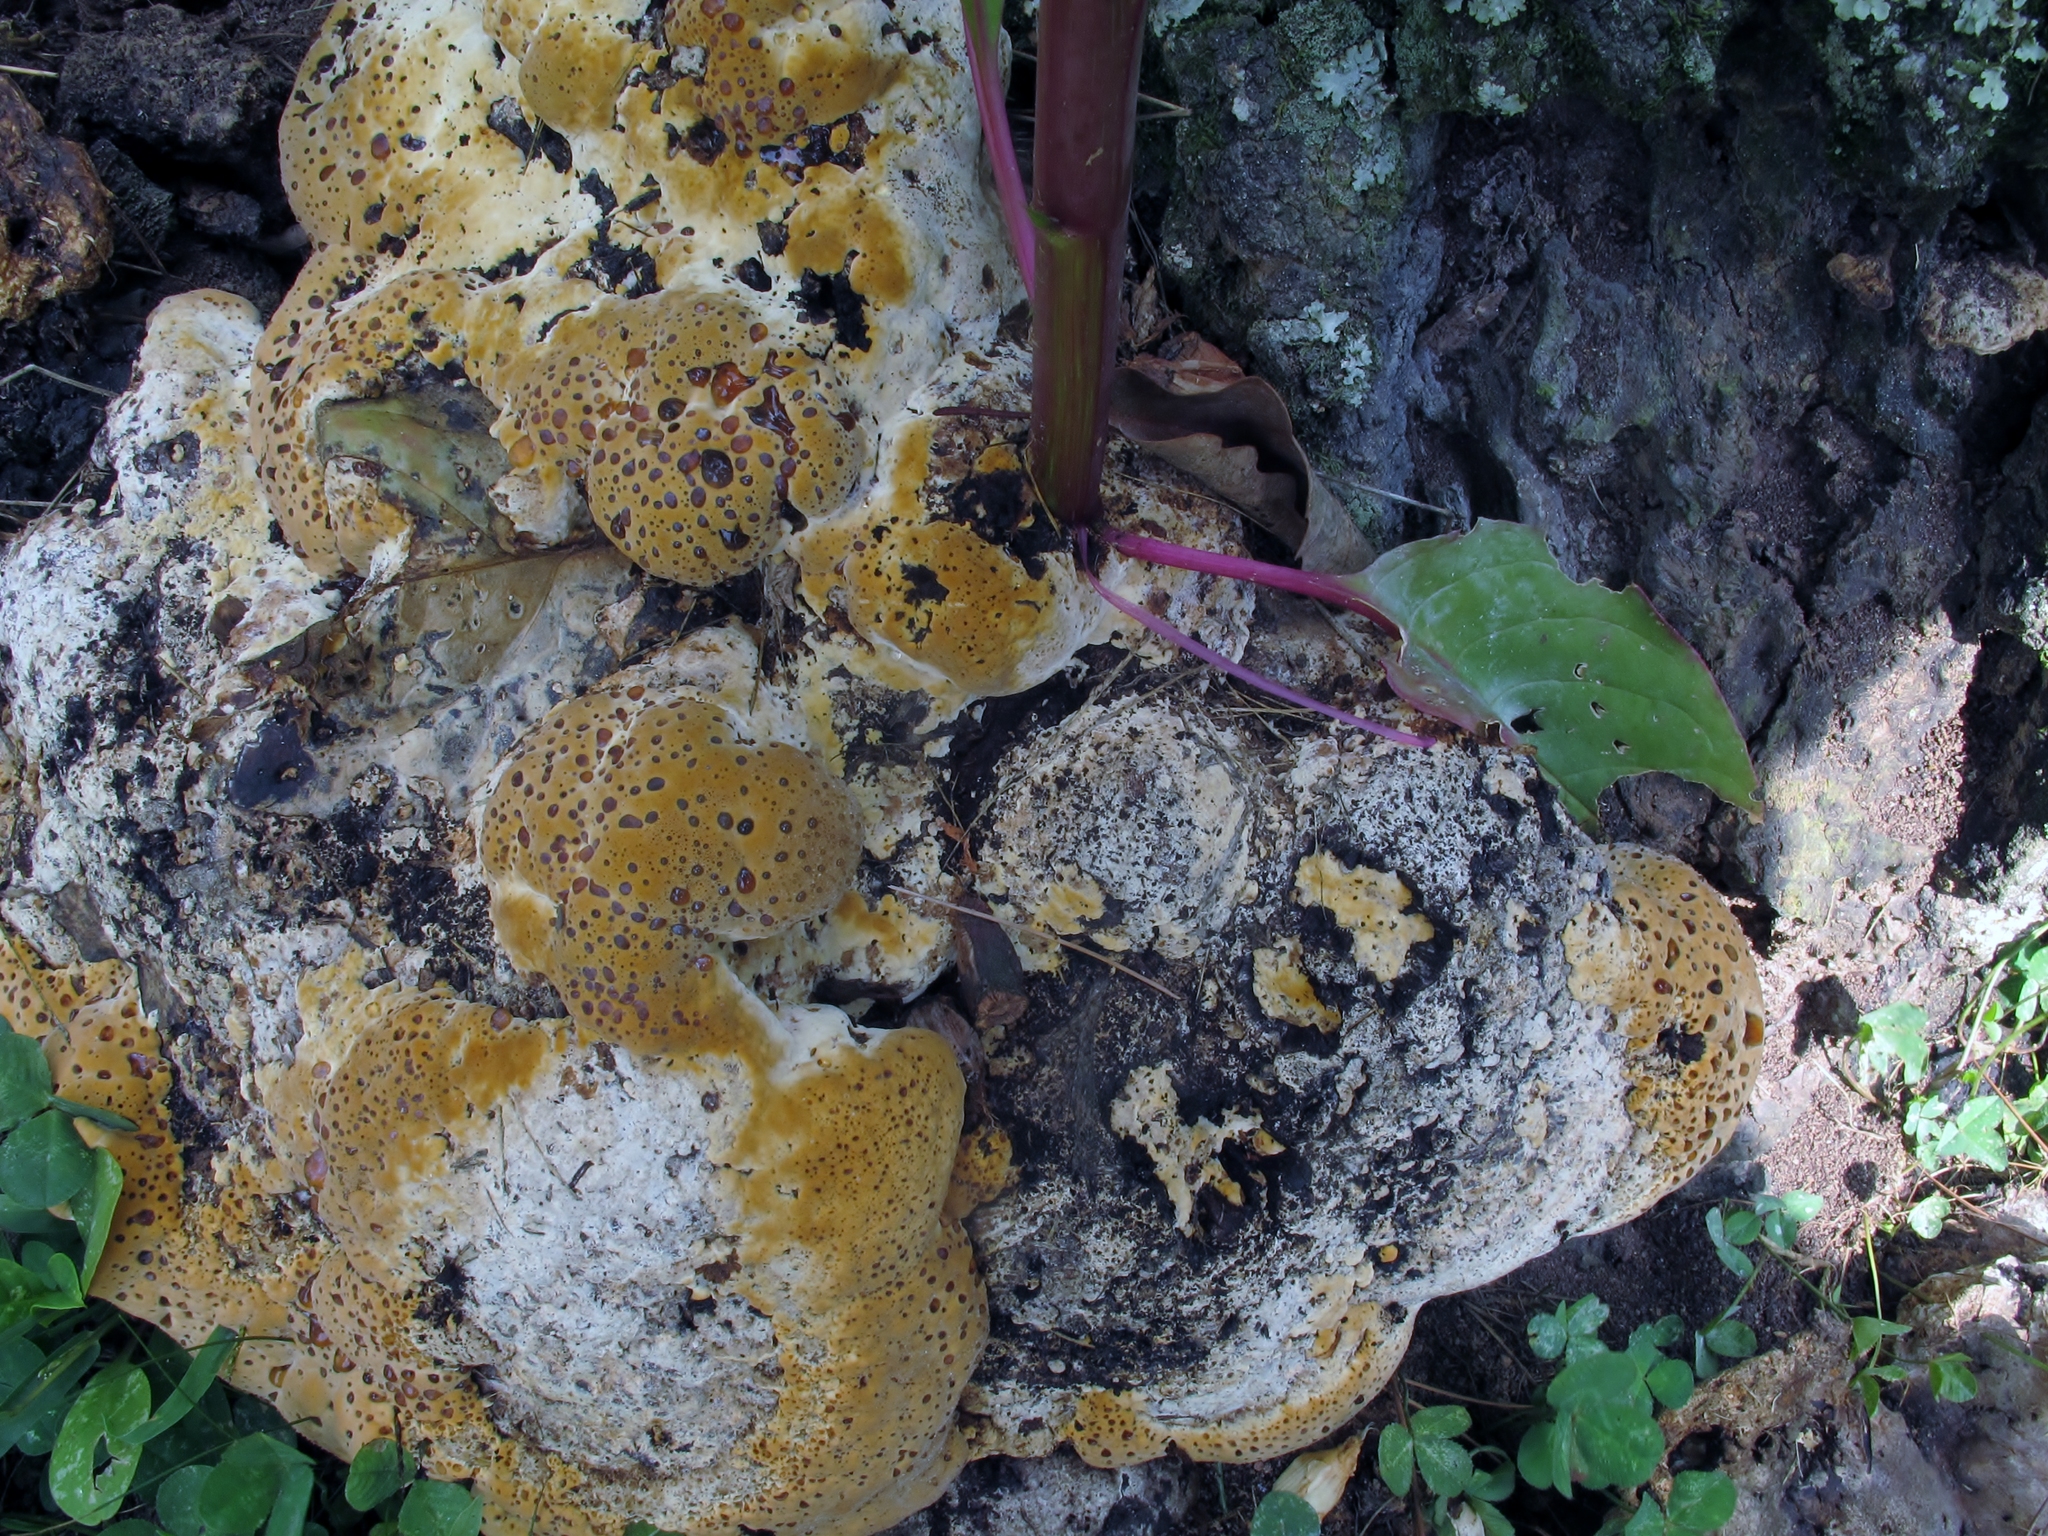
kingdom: Fungi
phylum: Basidiomycota
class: Agaricomycetes
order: Hymenochaetales
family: Hymenochaetaceae
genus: Pseudoinonotus
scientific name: Pseudoinonotus dryadeus
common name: Oak bracket
